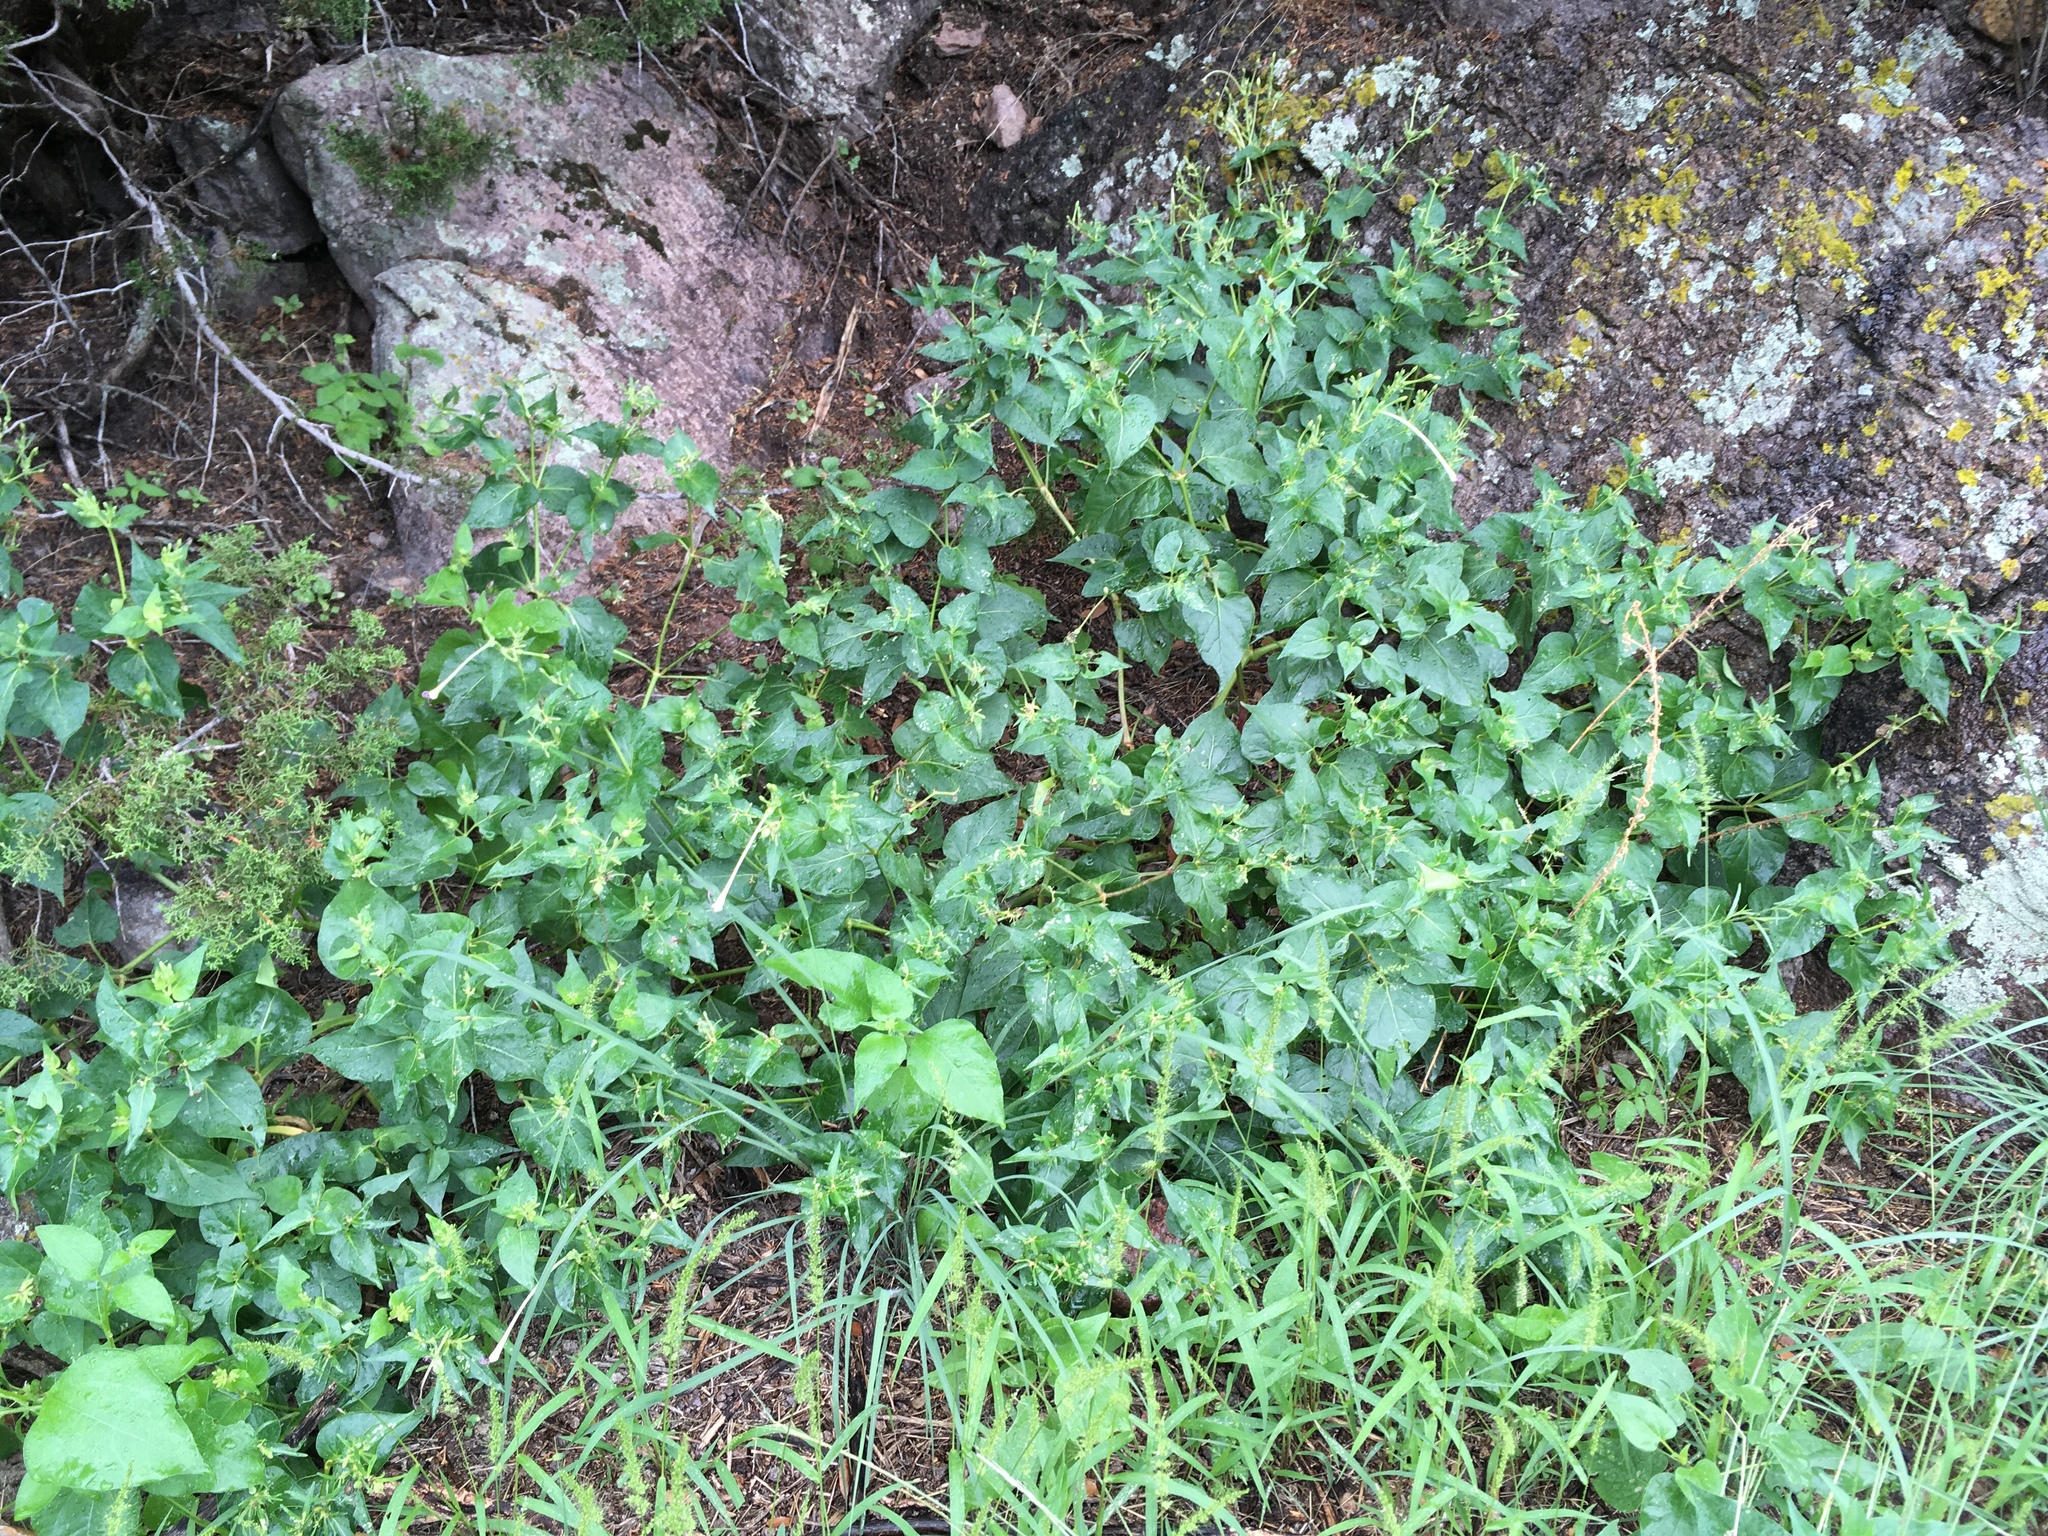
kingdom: Plantae
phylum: Tracheophyta
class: Magnoliopsida
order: Caryophyllales
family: Nyctaginaceae
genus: Mirabilis
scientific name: Mirabilis longiflora
